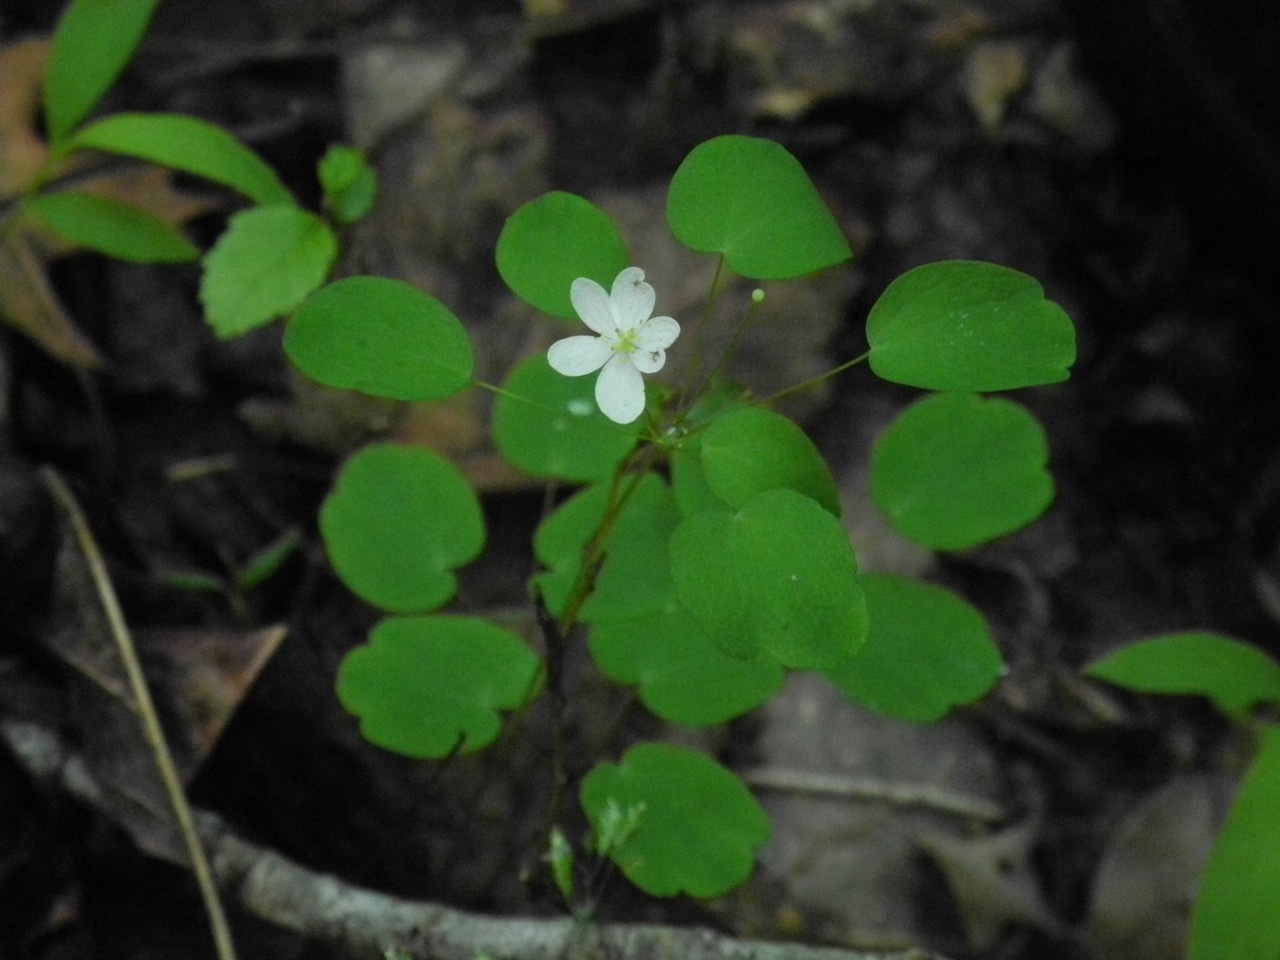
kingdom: Plantae
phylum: Tracheophyta
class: Magnoliopsida
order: Ranunculales
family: Ranunculaceae
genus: Thalictrum
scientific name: Thalictrum thalictroides
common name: Rue-anemone
